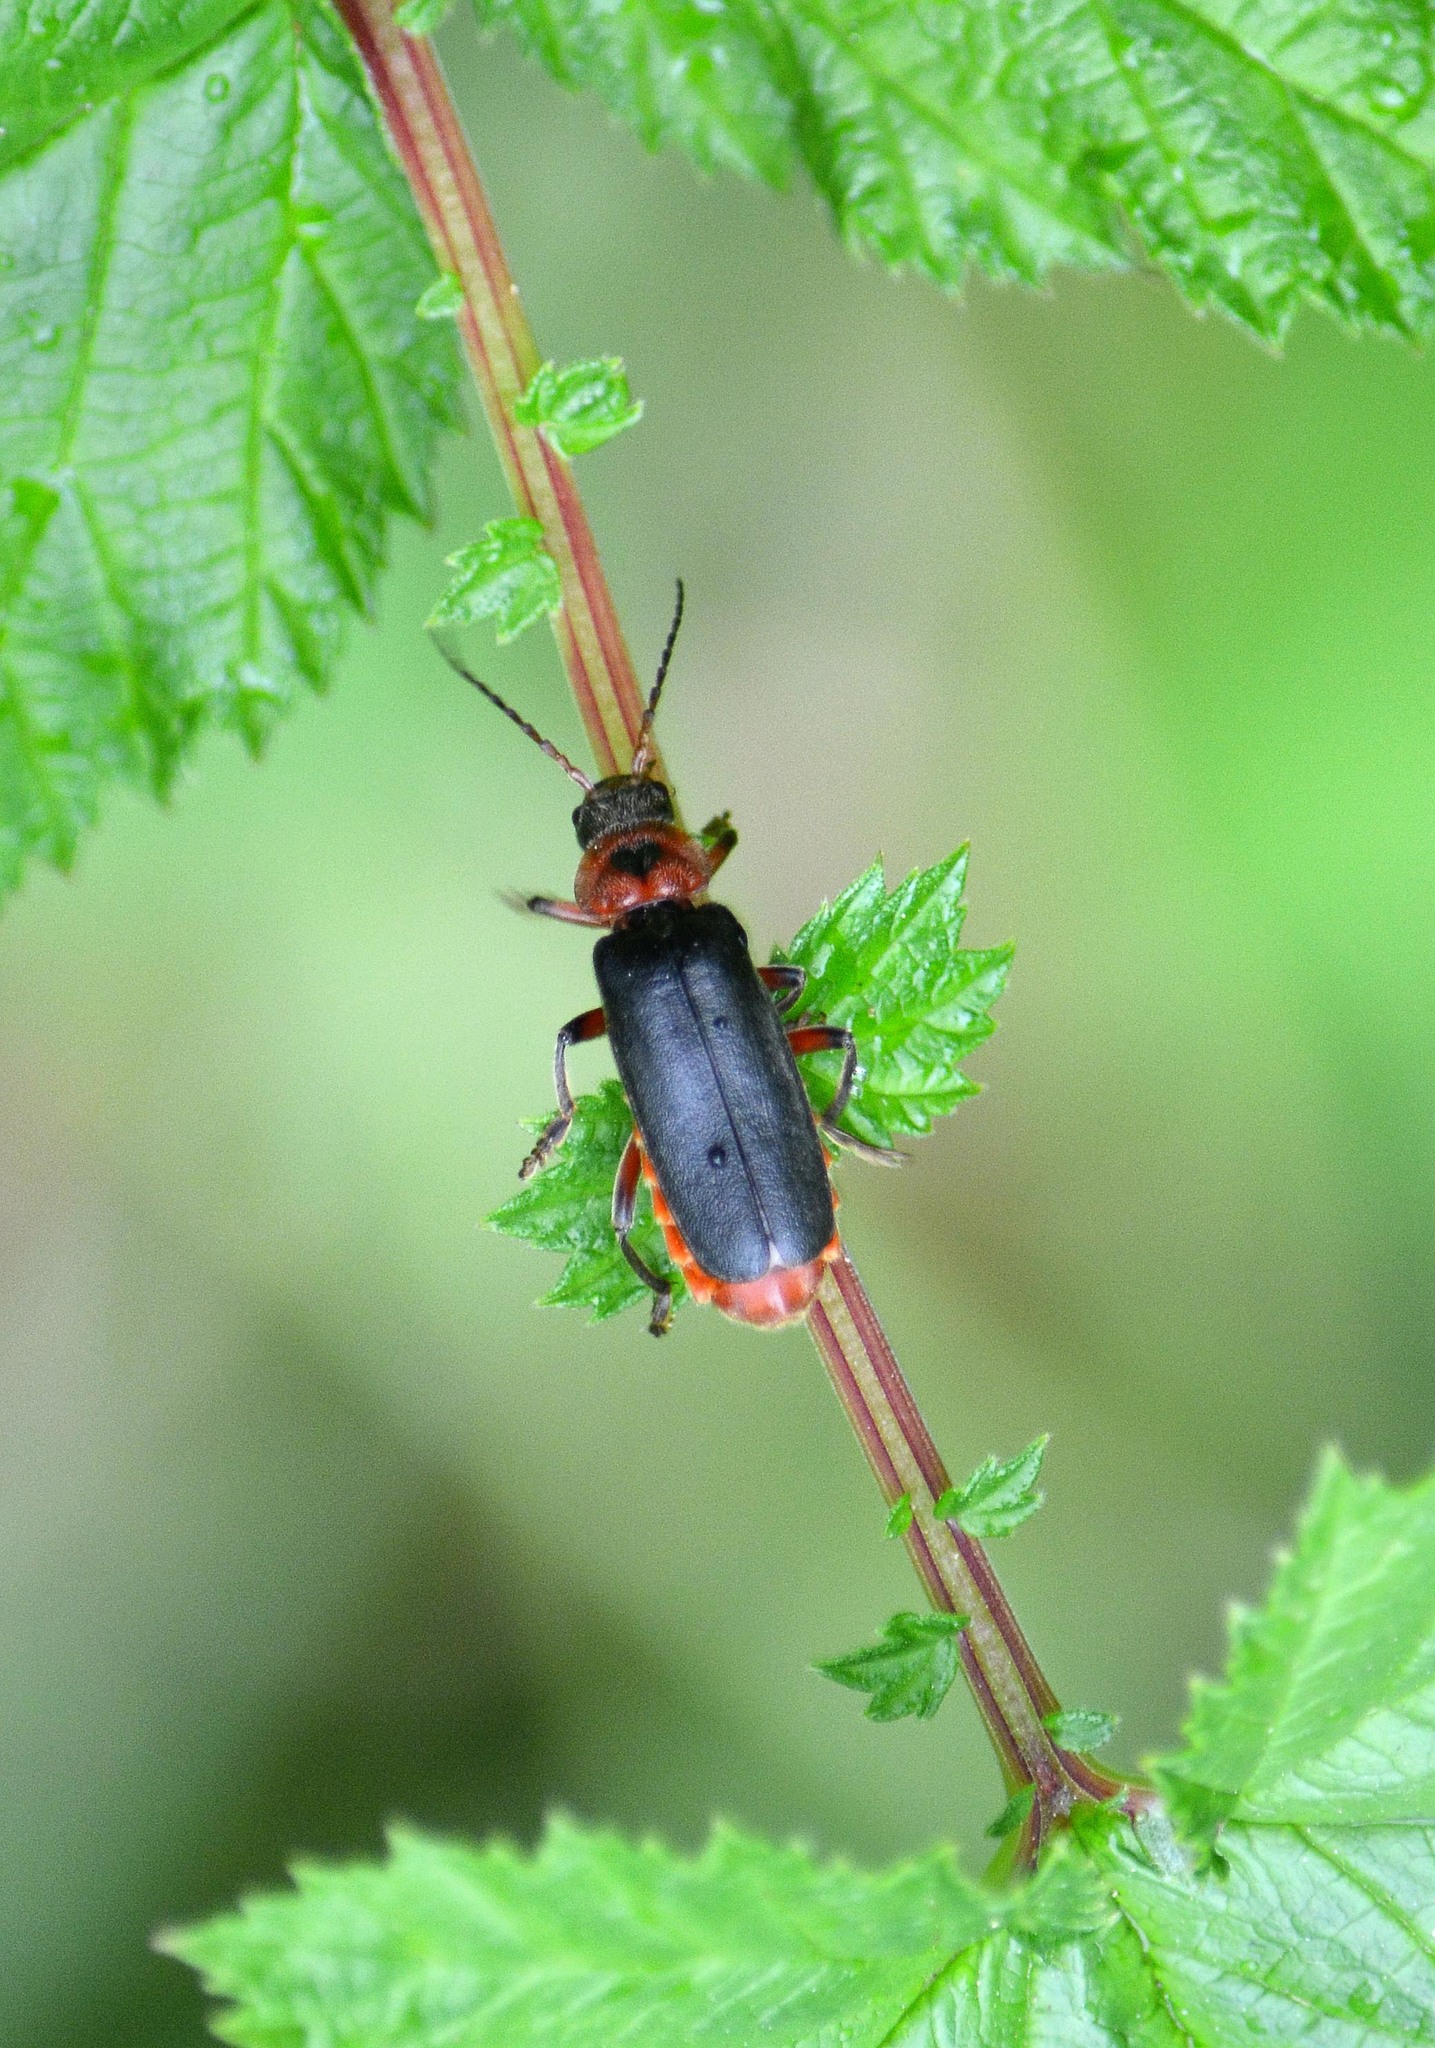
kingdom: Animalia
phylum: Arthropoda
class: Insecta
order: Coleoptera
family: Cantharidae
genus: Cantharis
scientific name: Cantharis rustica
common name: Soldier beetle
